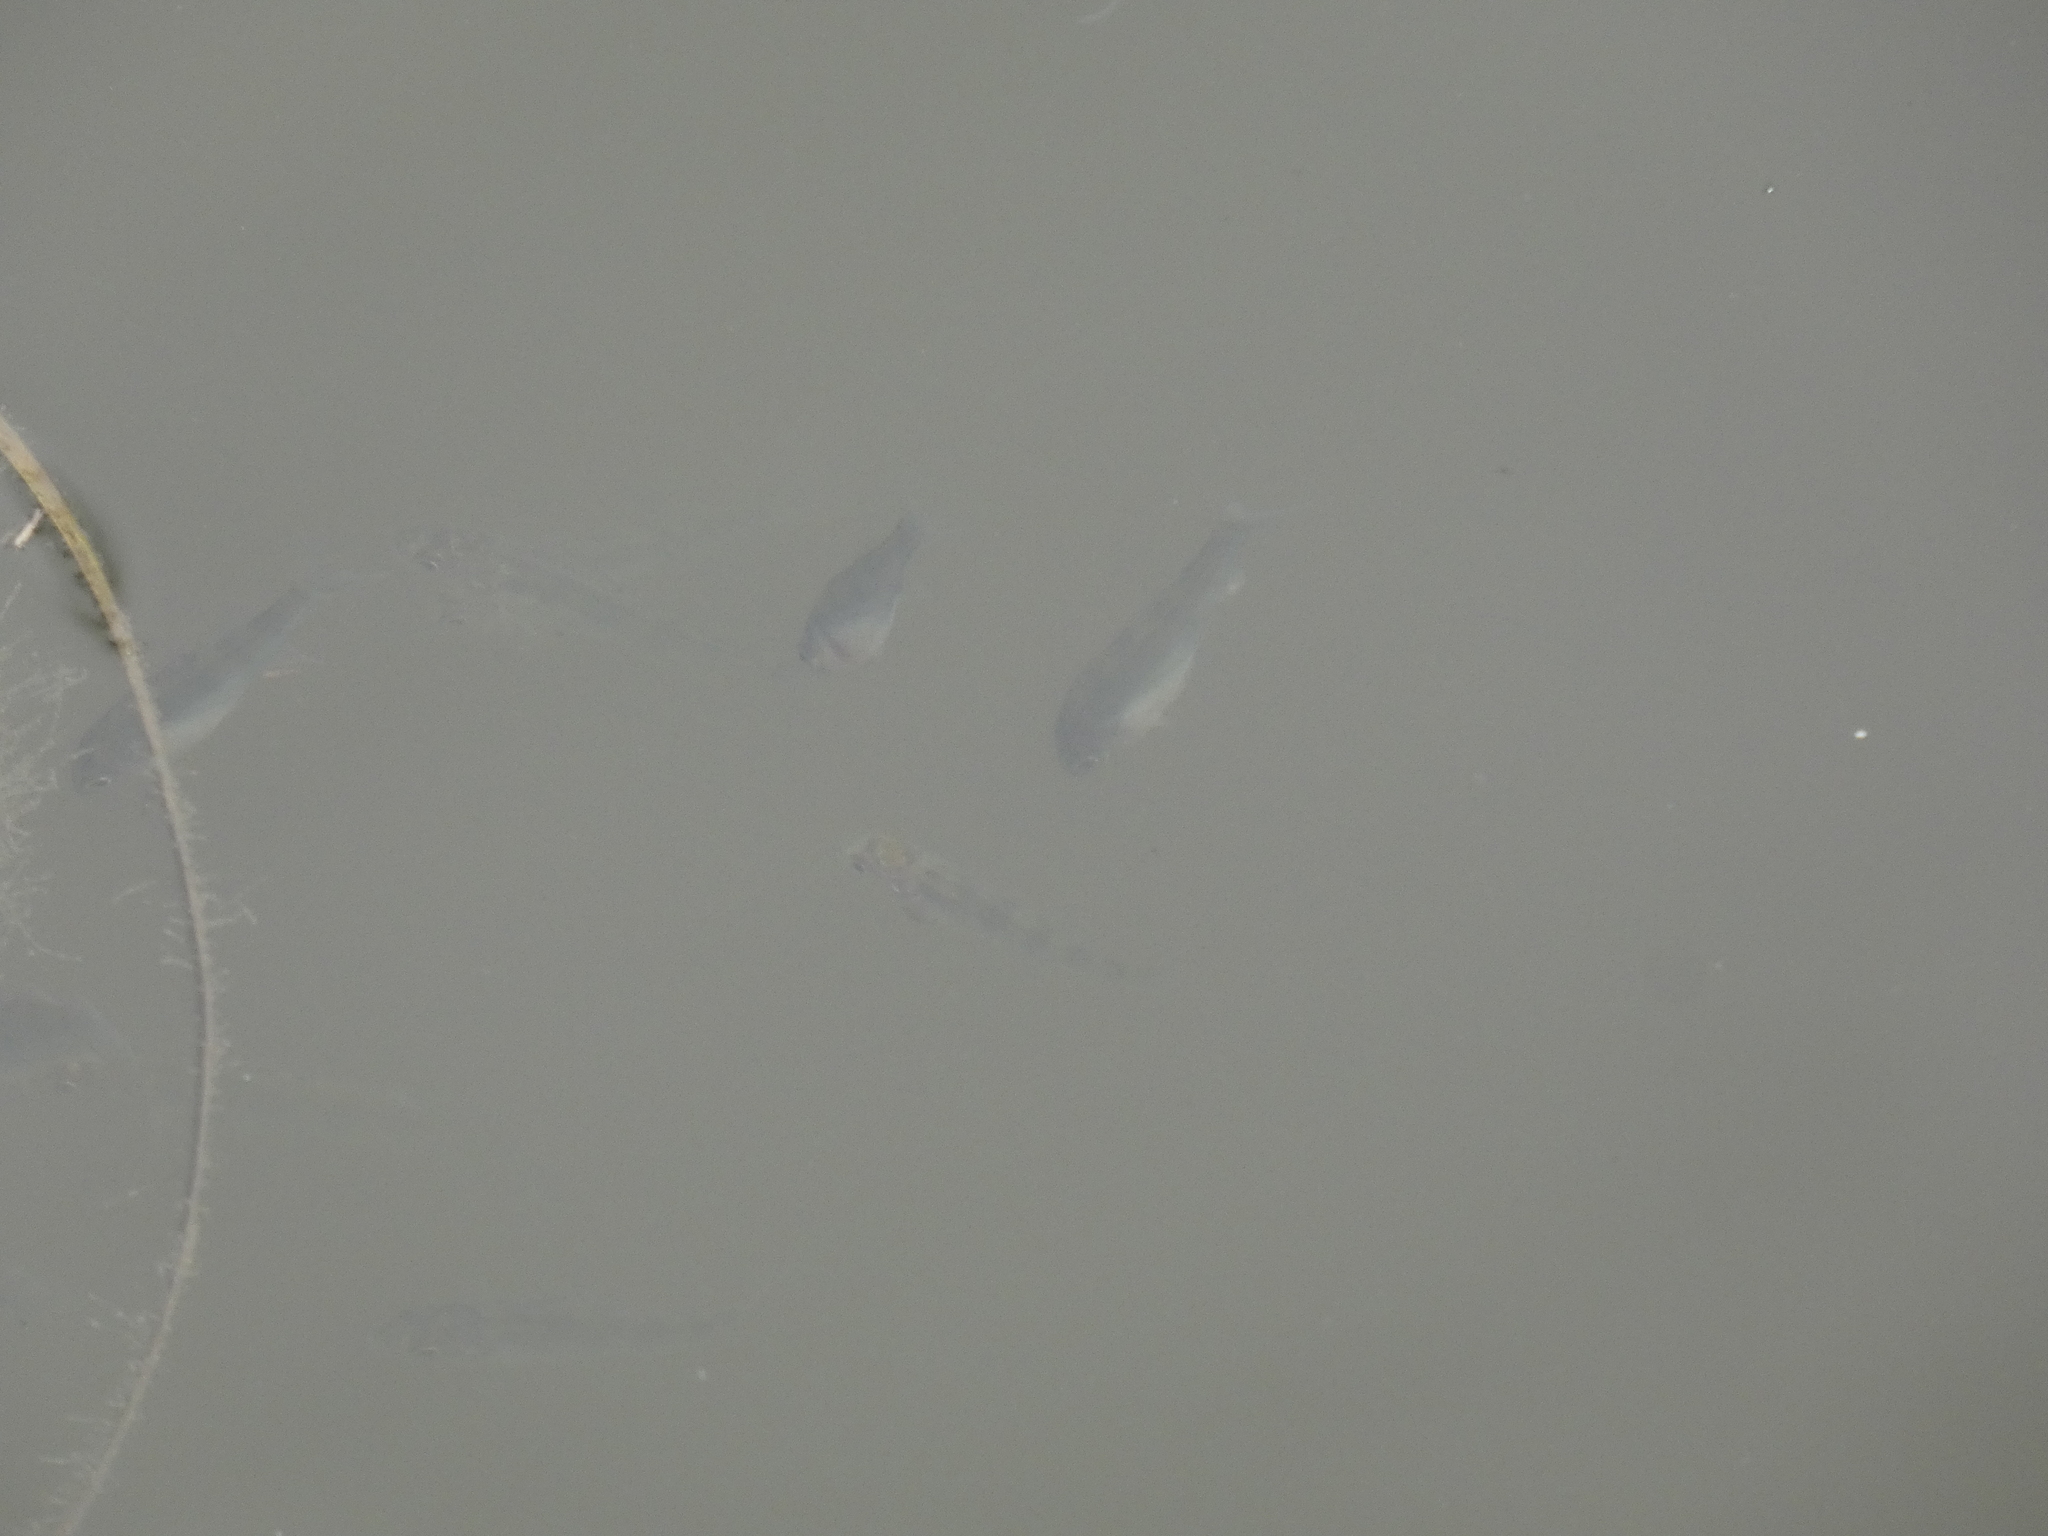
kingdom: Animalia
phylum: Chordata
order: Perciformes
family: Percidae
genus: Perca
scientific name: Perca fluviatilis
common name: Perch
